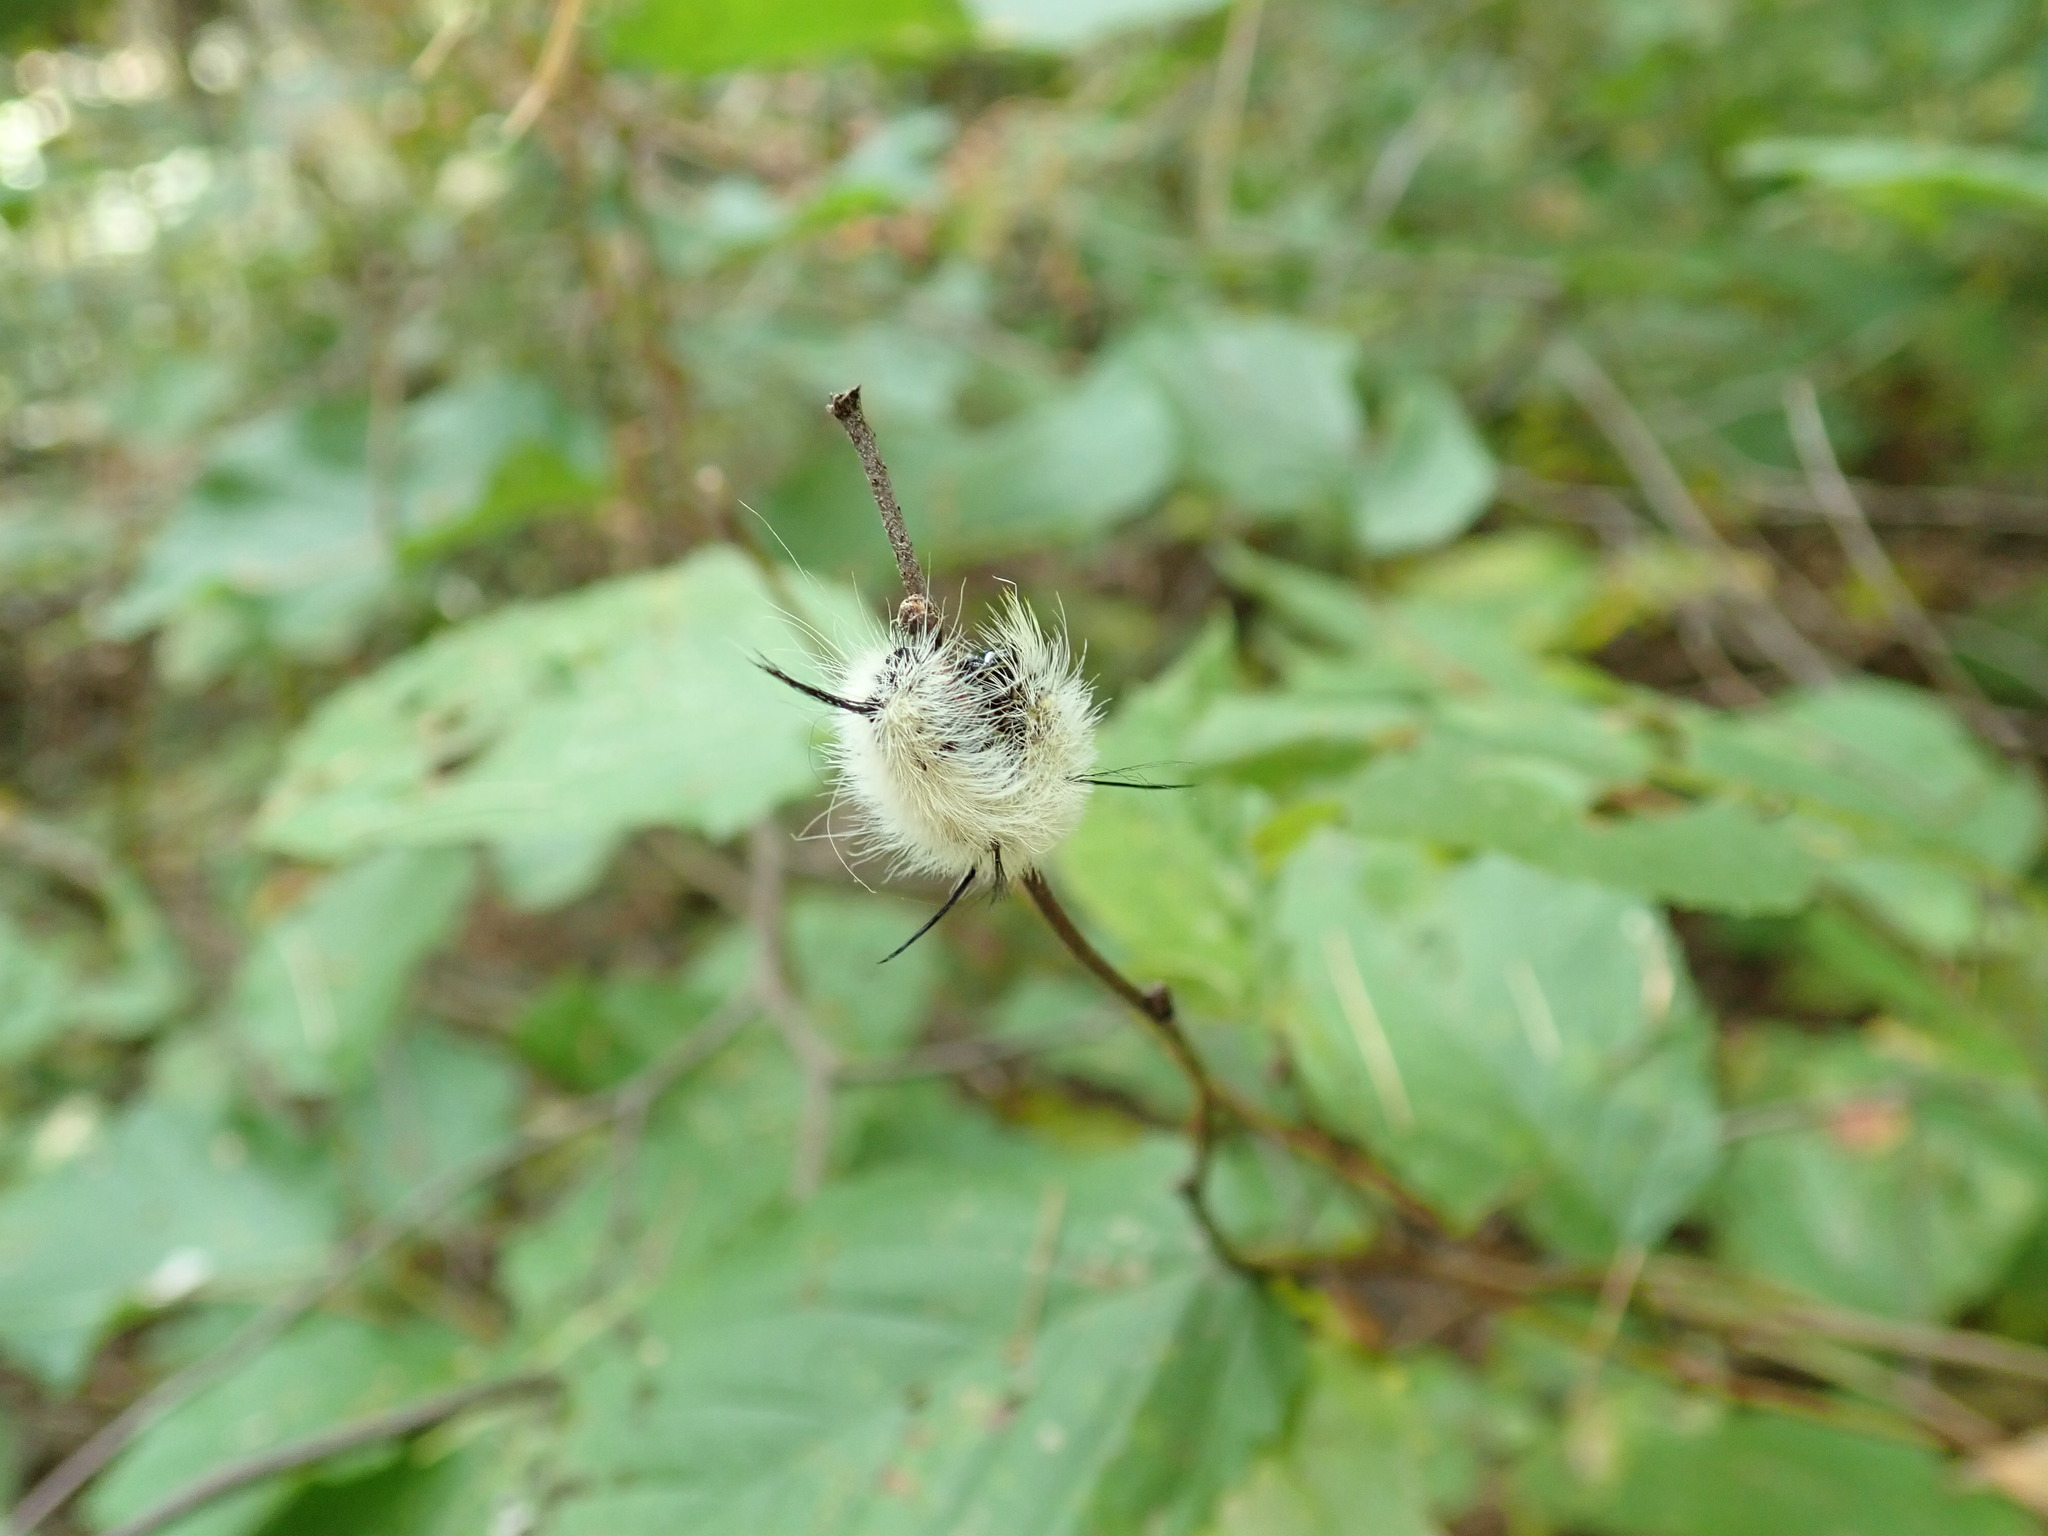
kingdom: Animalia
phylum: Arthropoda
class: Insecta
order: Lepidoptera
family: Noctuidae
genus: Acronicta
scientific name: Acronicta americana
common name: American dagger
